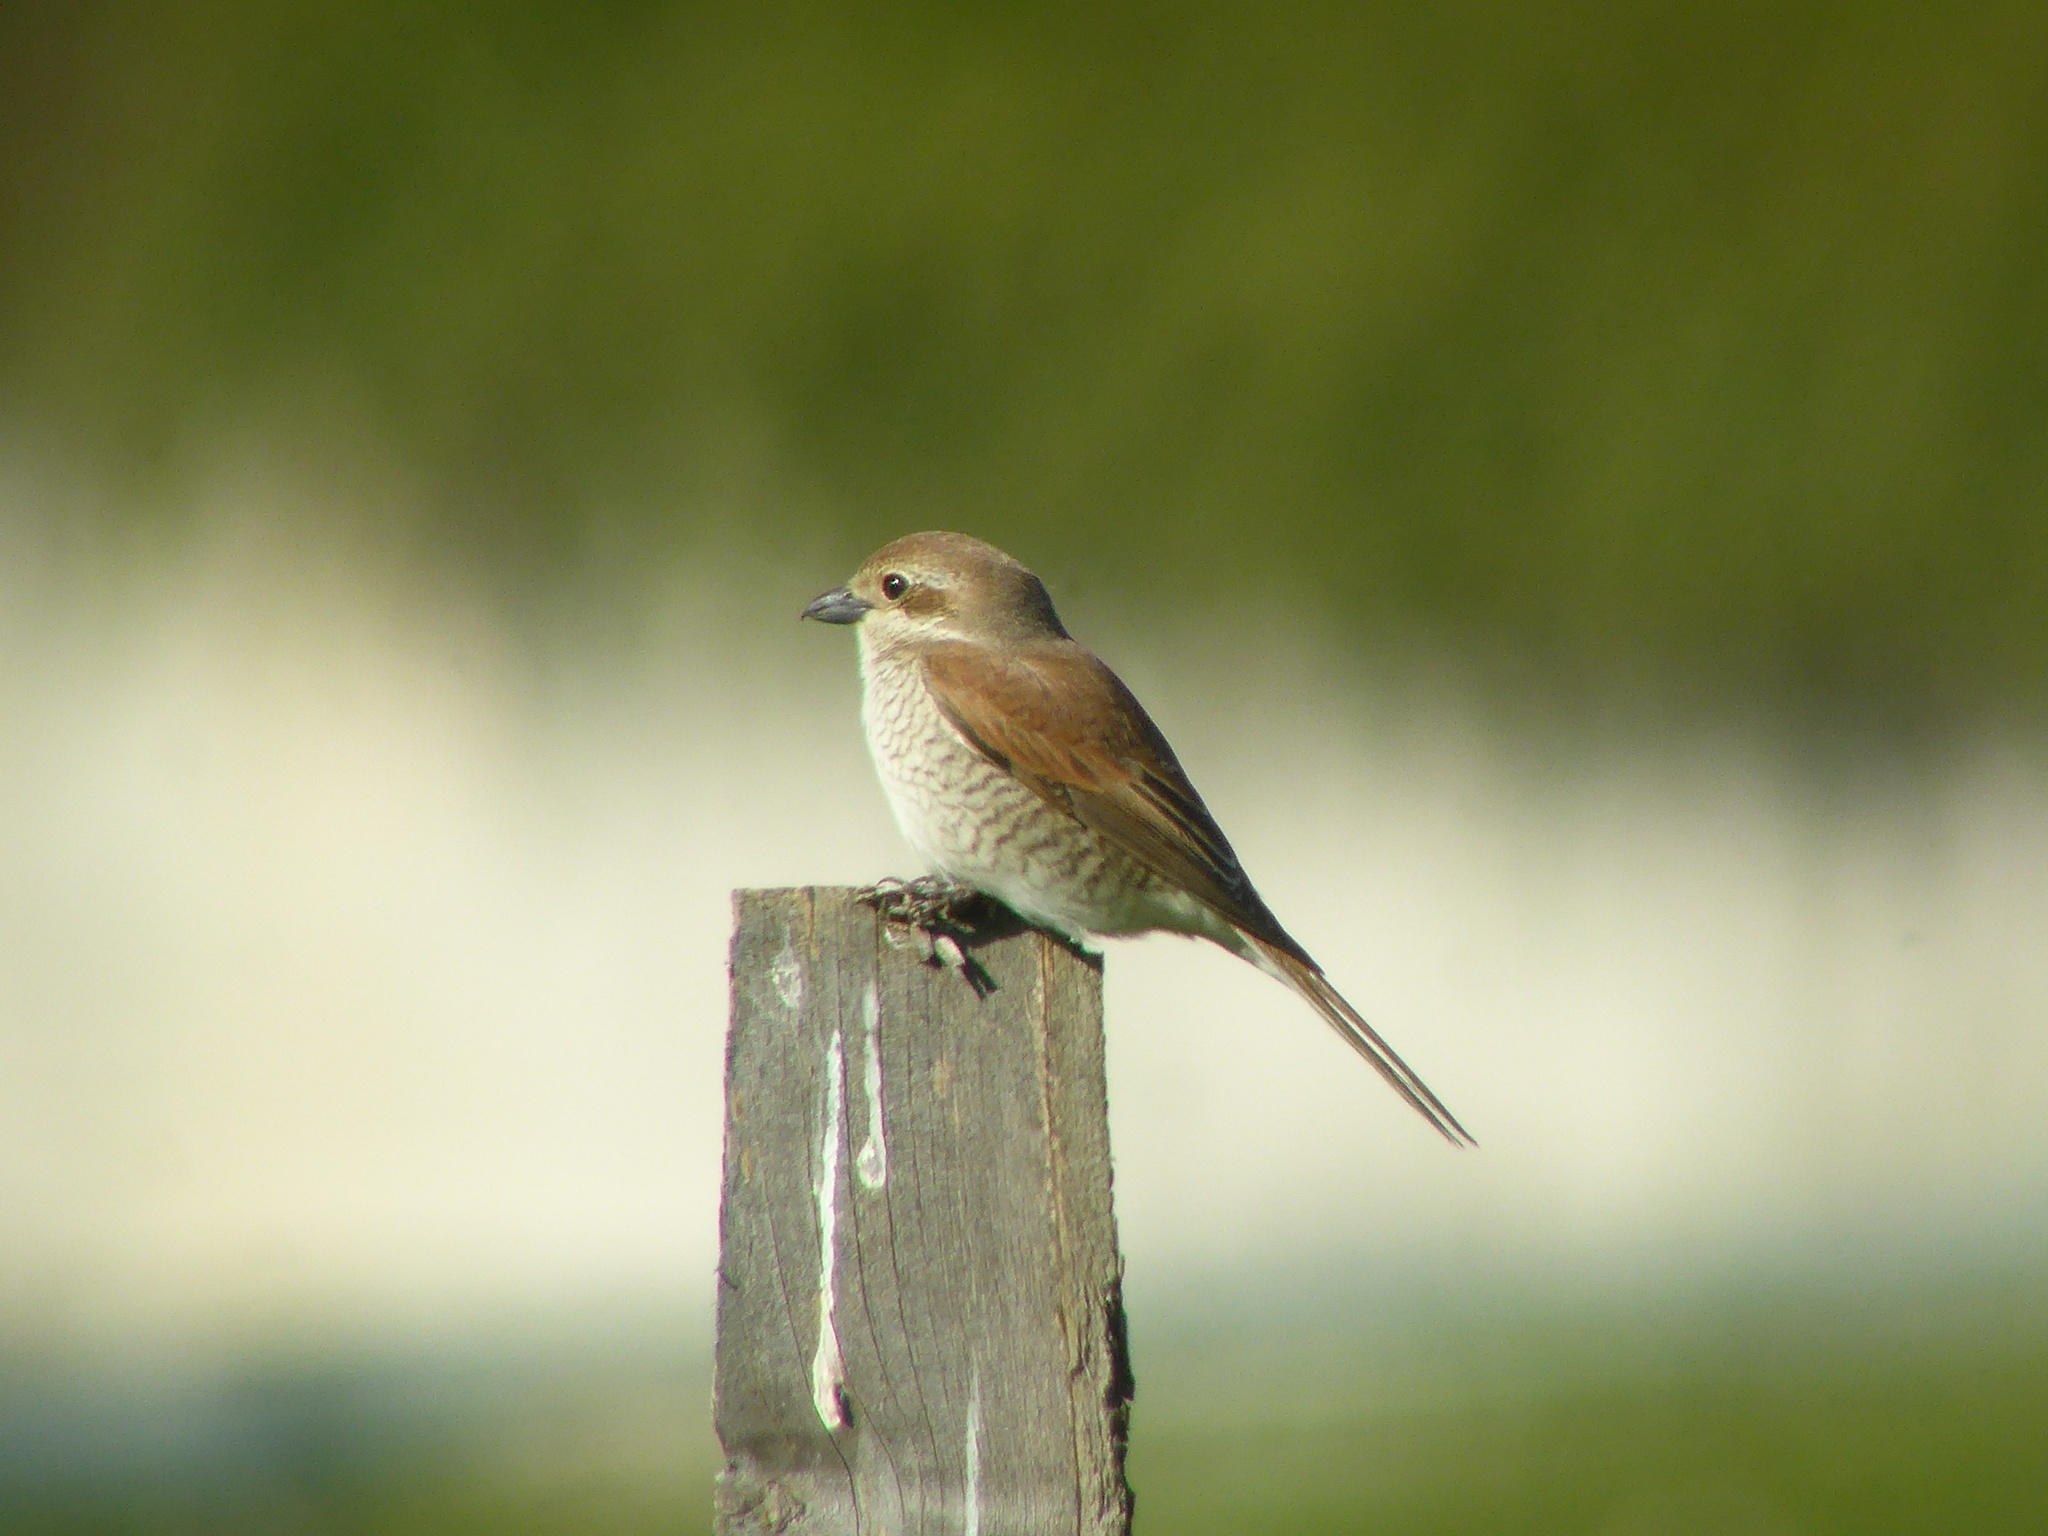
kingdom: Animalia
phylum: Chordata
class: Aves
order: Passeriformes
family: Laniidae
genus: Lanius
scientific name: Lanius collurio
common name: Red-backed shrike
